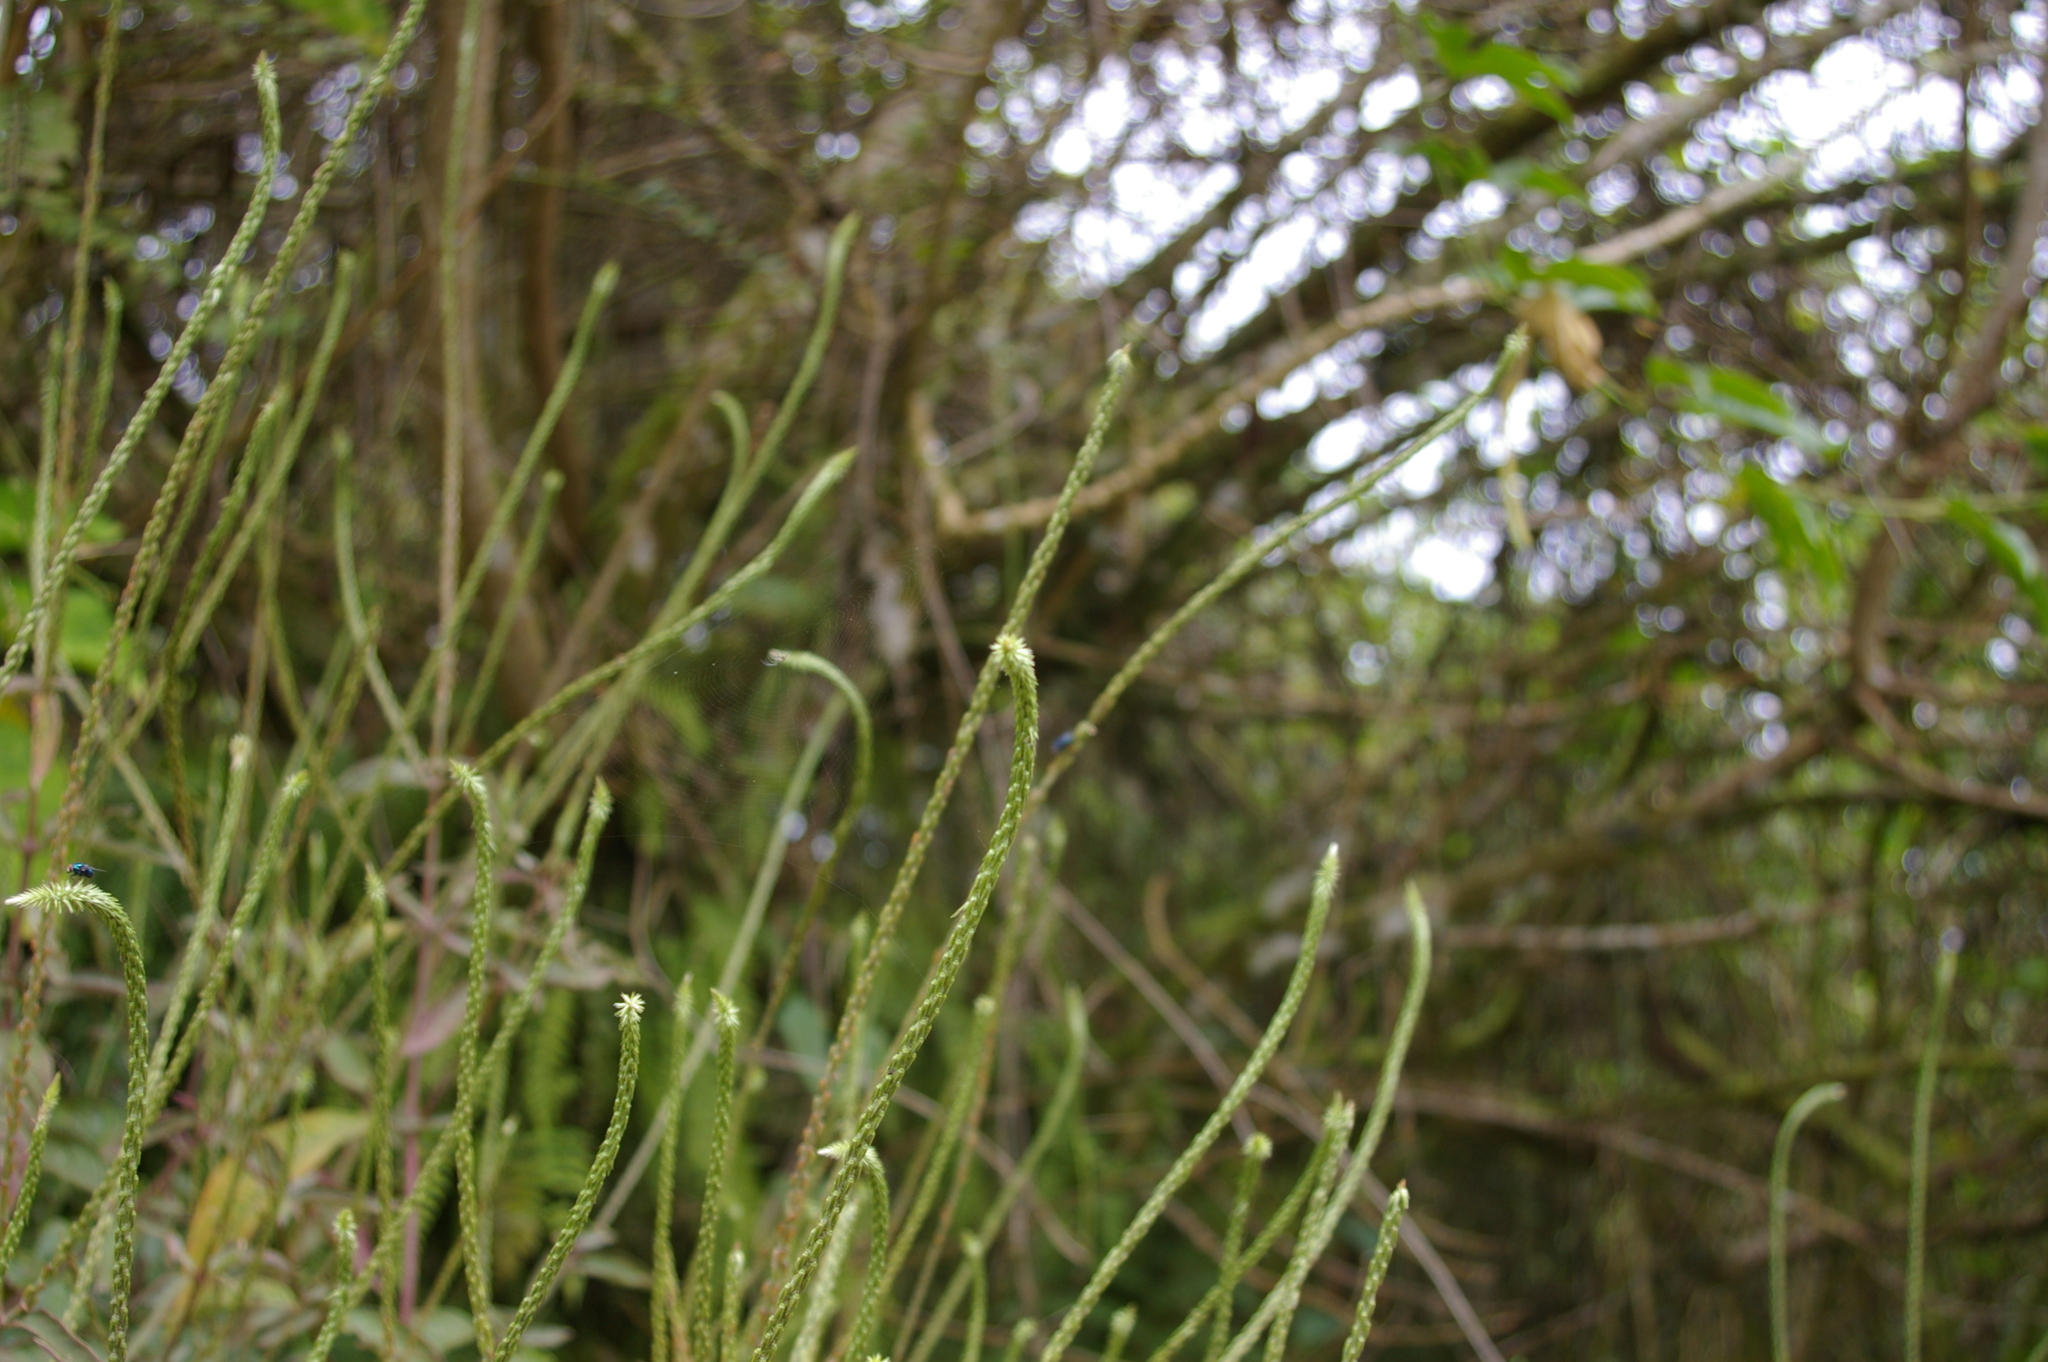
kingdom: Plantae
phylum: Tracheophyta
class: Magnoliopsida
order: Caryophyllales
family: Amaranthaceae
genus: Achyranthes
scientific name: Achyranthes aspera
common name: Devil's horsewhip
